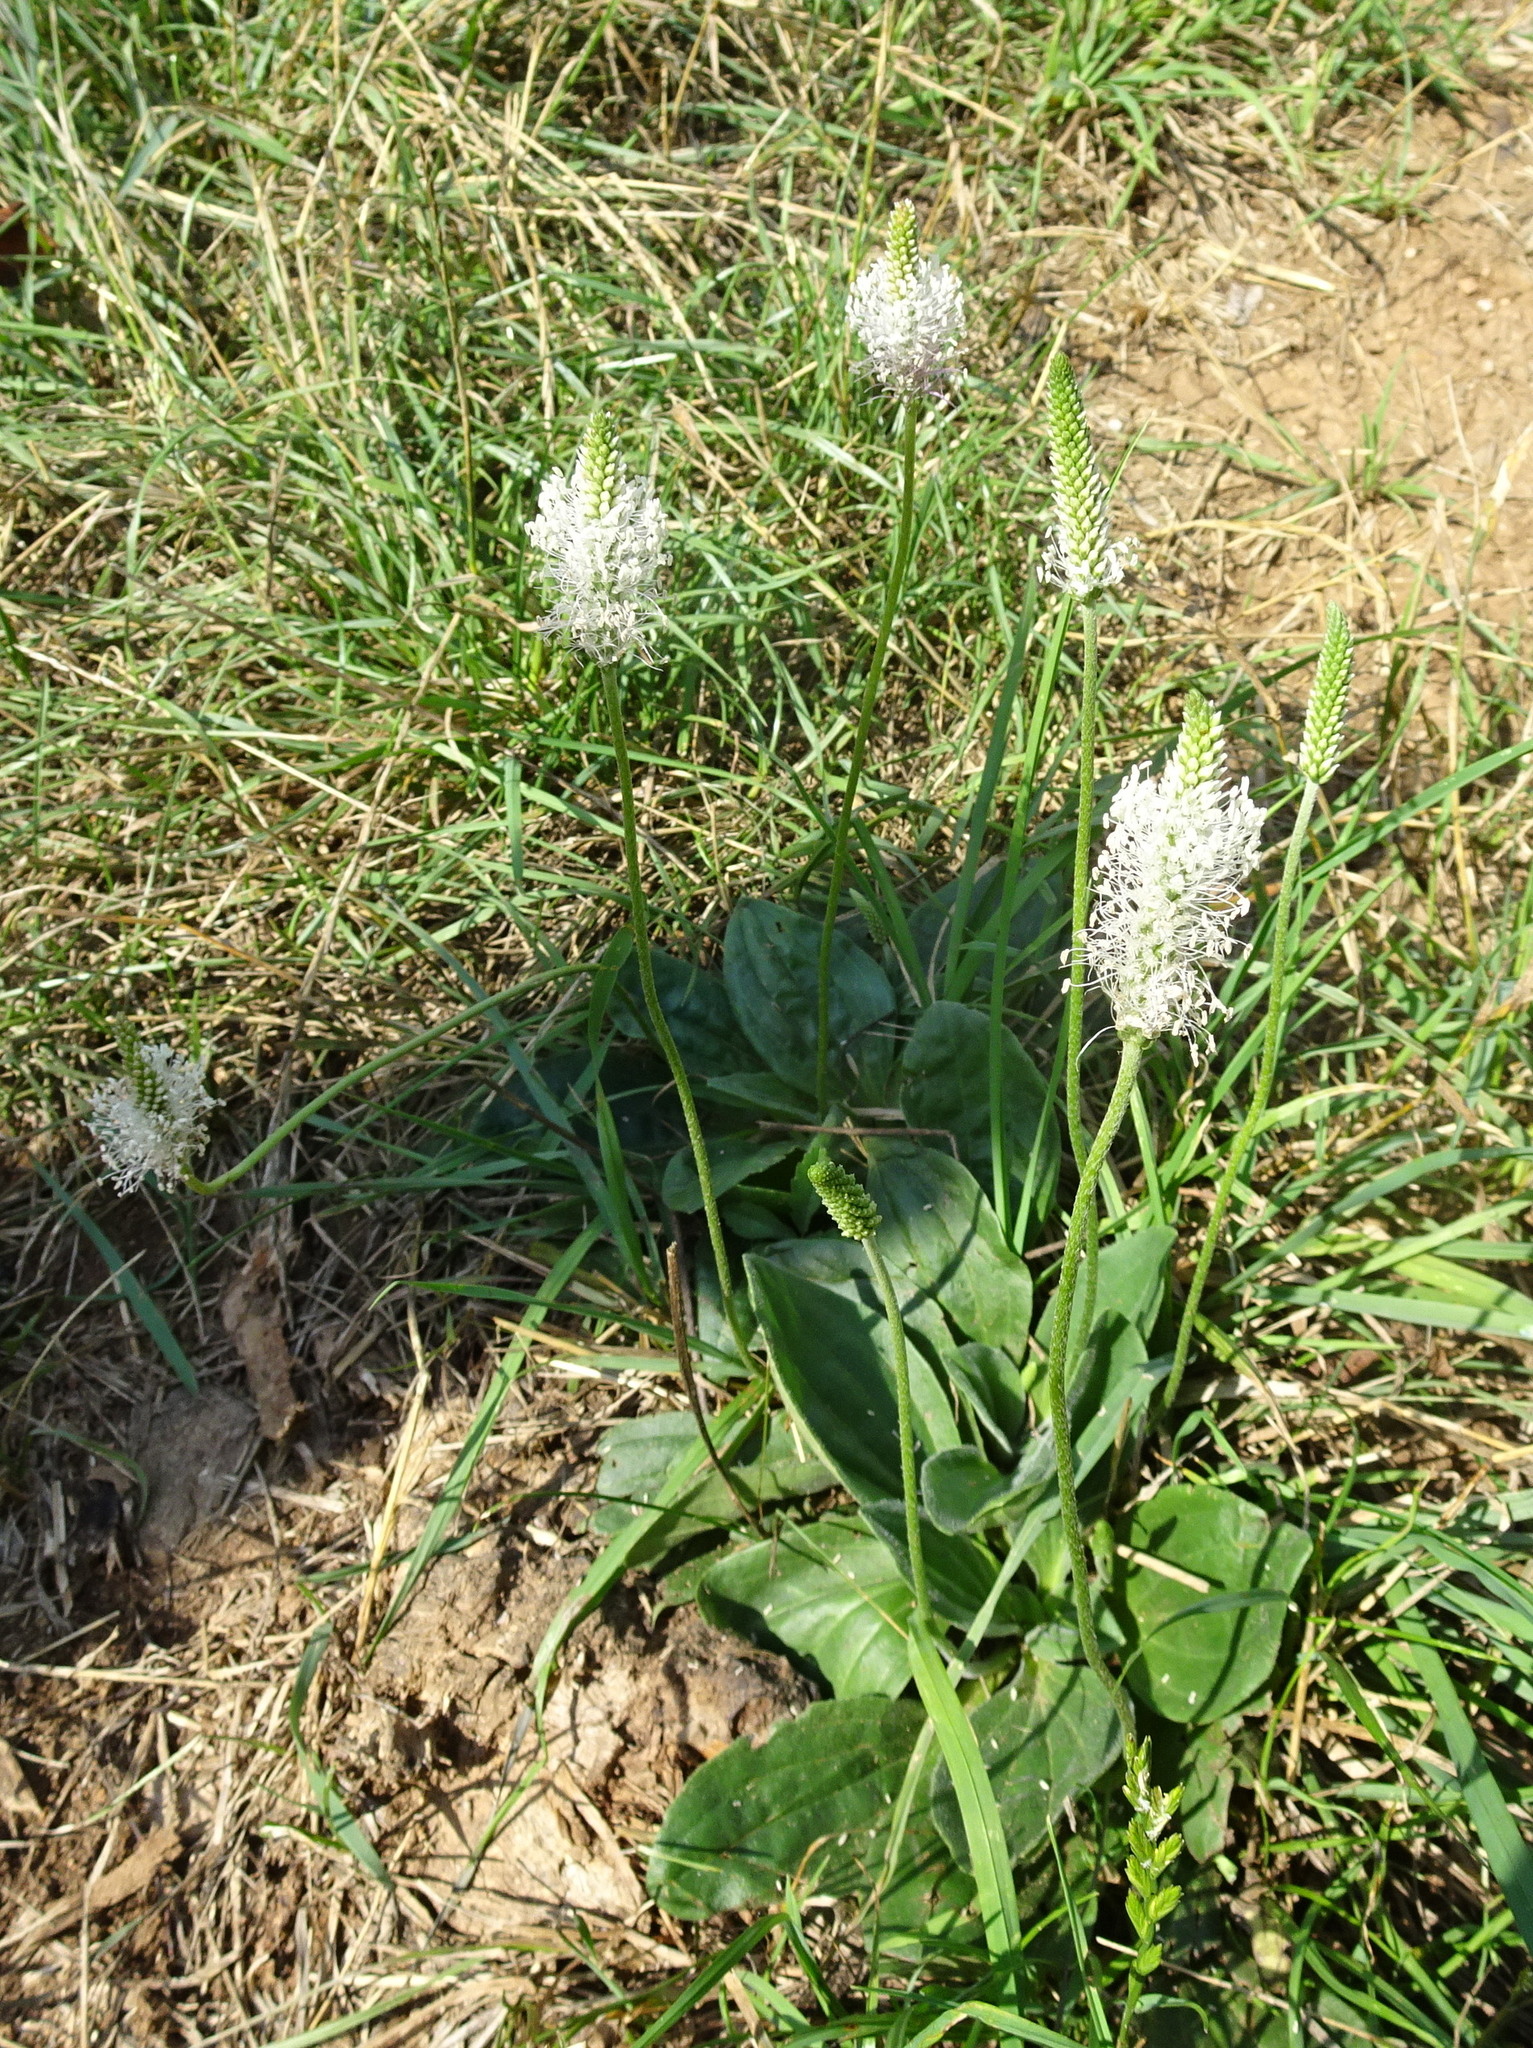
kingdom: Plantae
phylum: Tracheophyta
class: Magnoliopsida
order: Lamiales
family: Plantaginaceae
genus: Plantago
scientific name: Plantago media
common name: Hoary plantain
